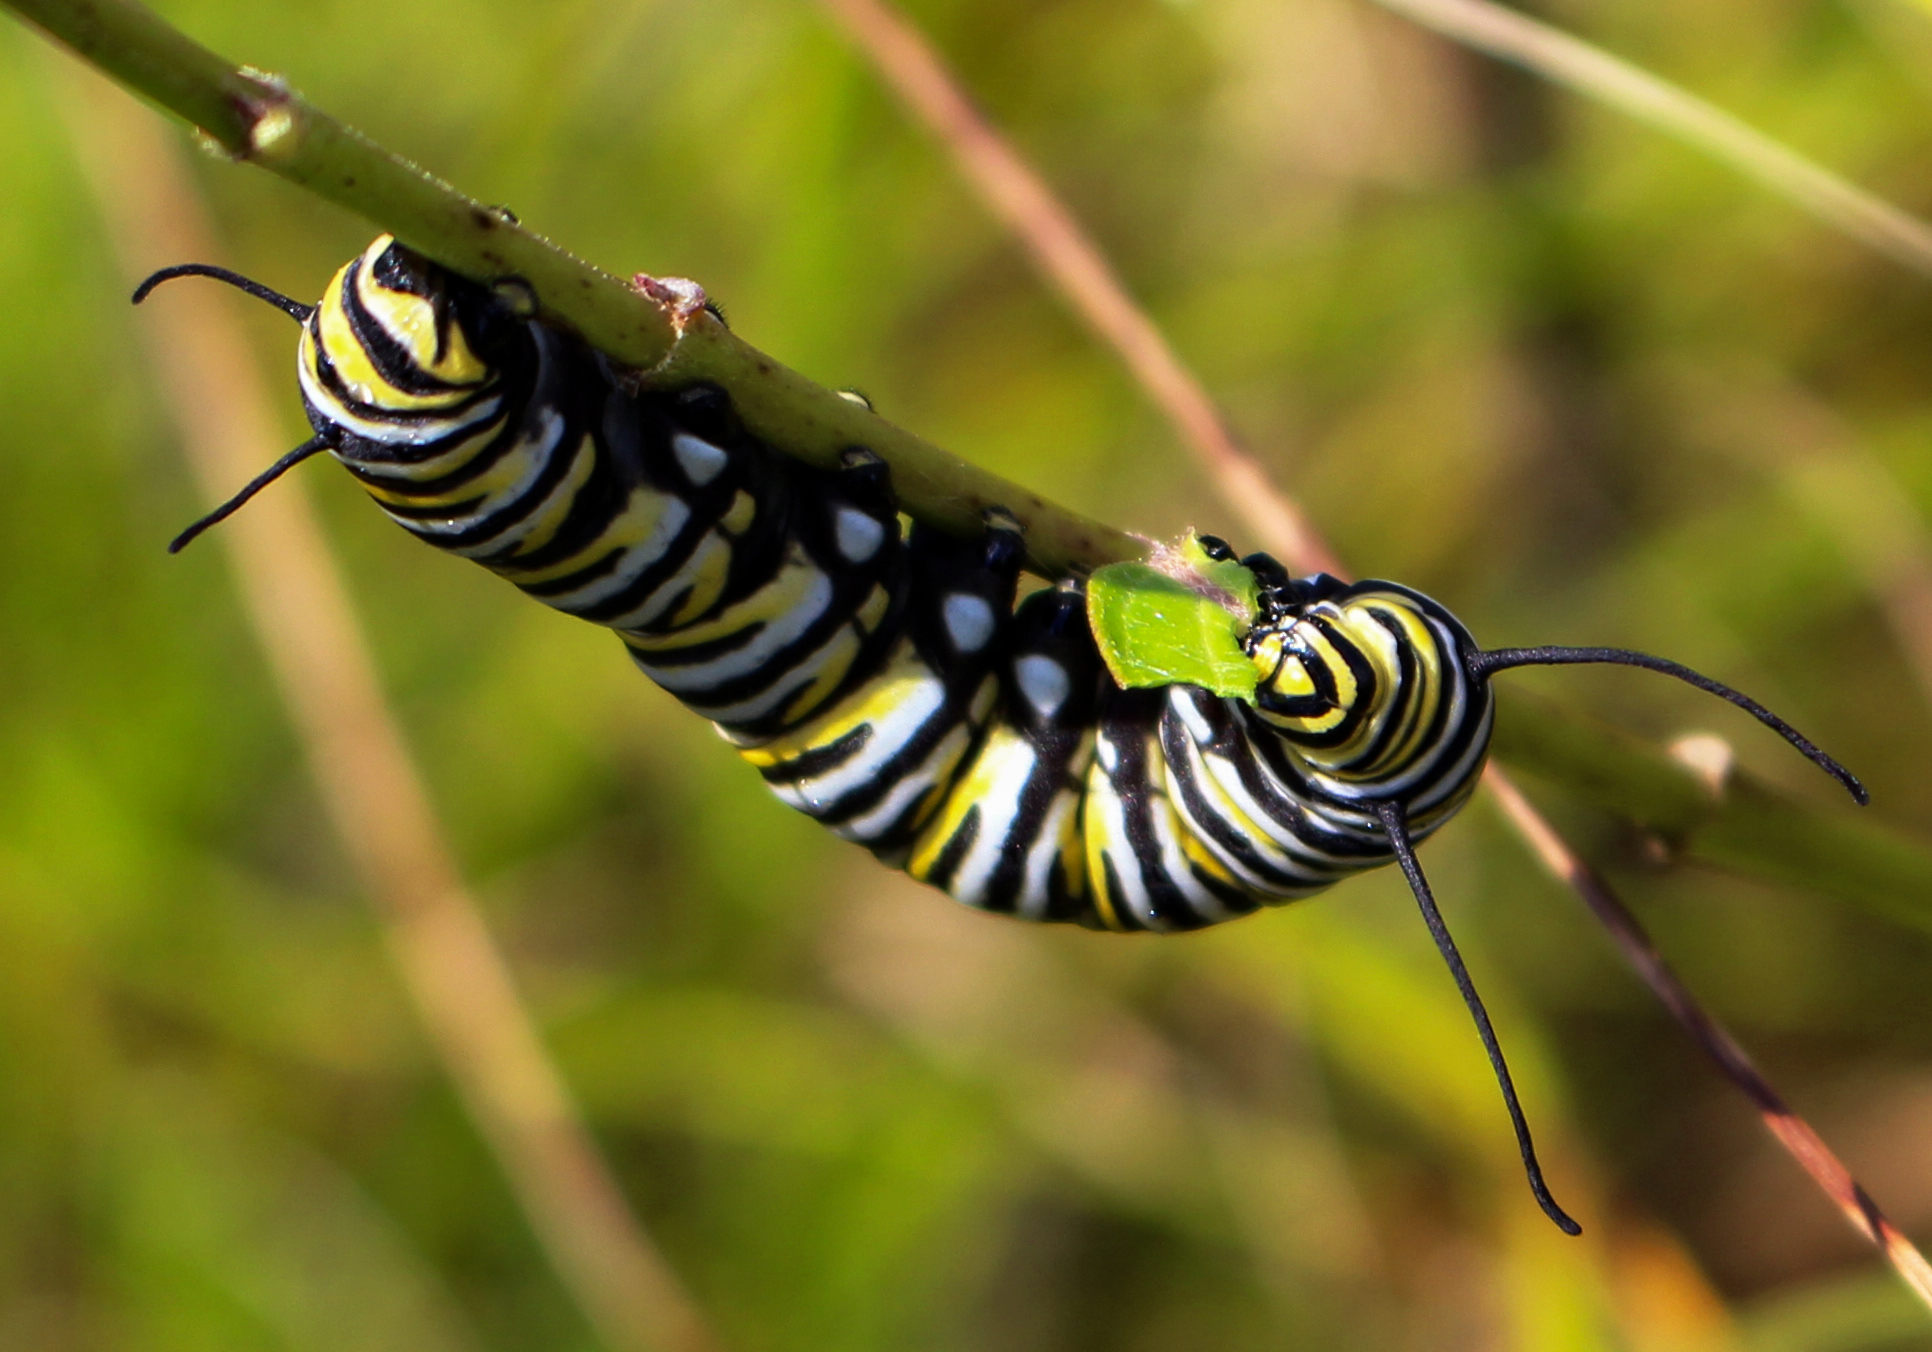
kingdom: Animalia
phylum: Arthropoda
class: Insecta
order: Lepidoptera
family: Nymphalidae
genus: Danaus
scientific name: Danaus plexippus
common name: Monarch
